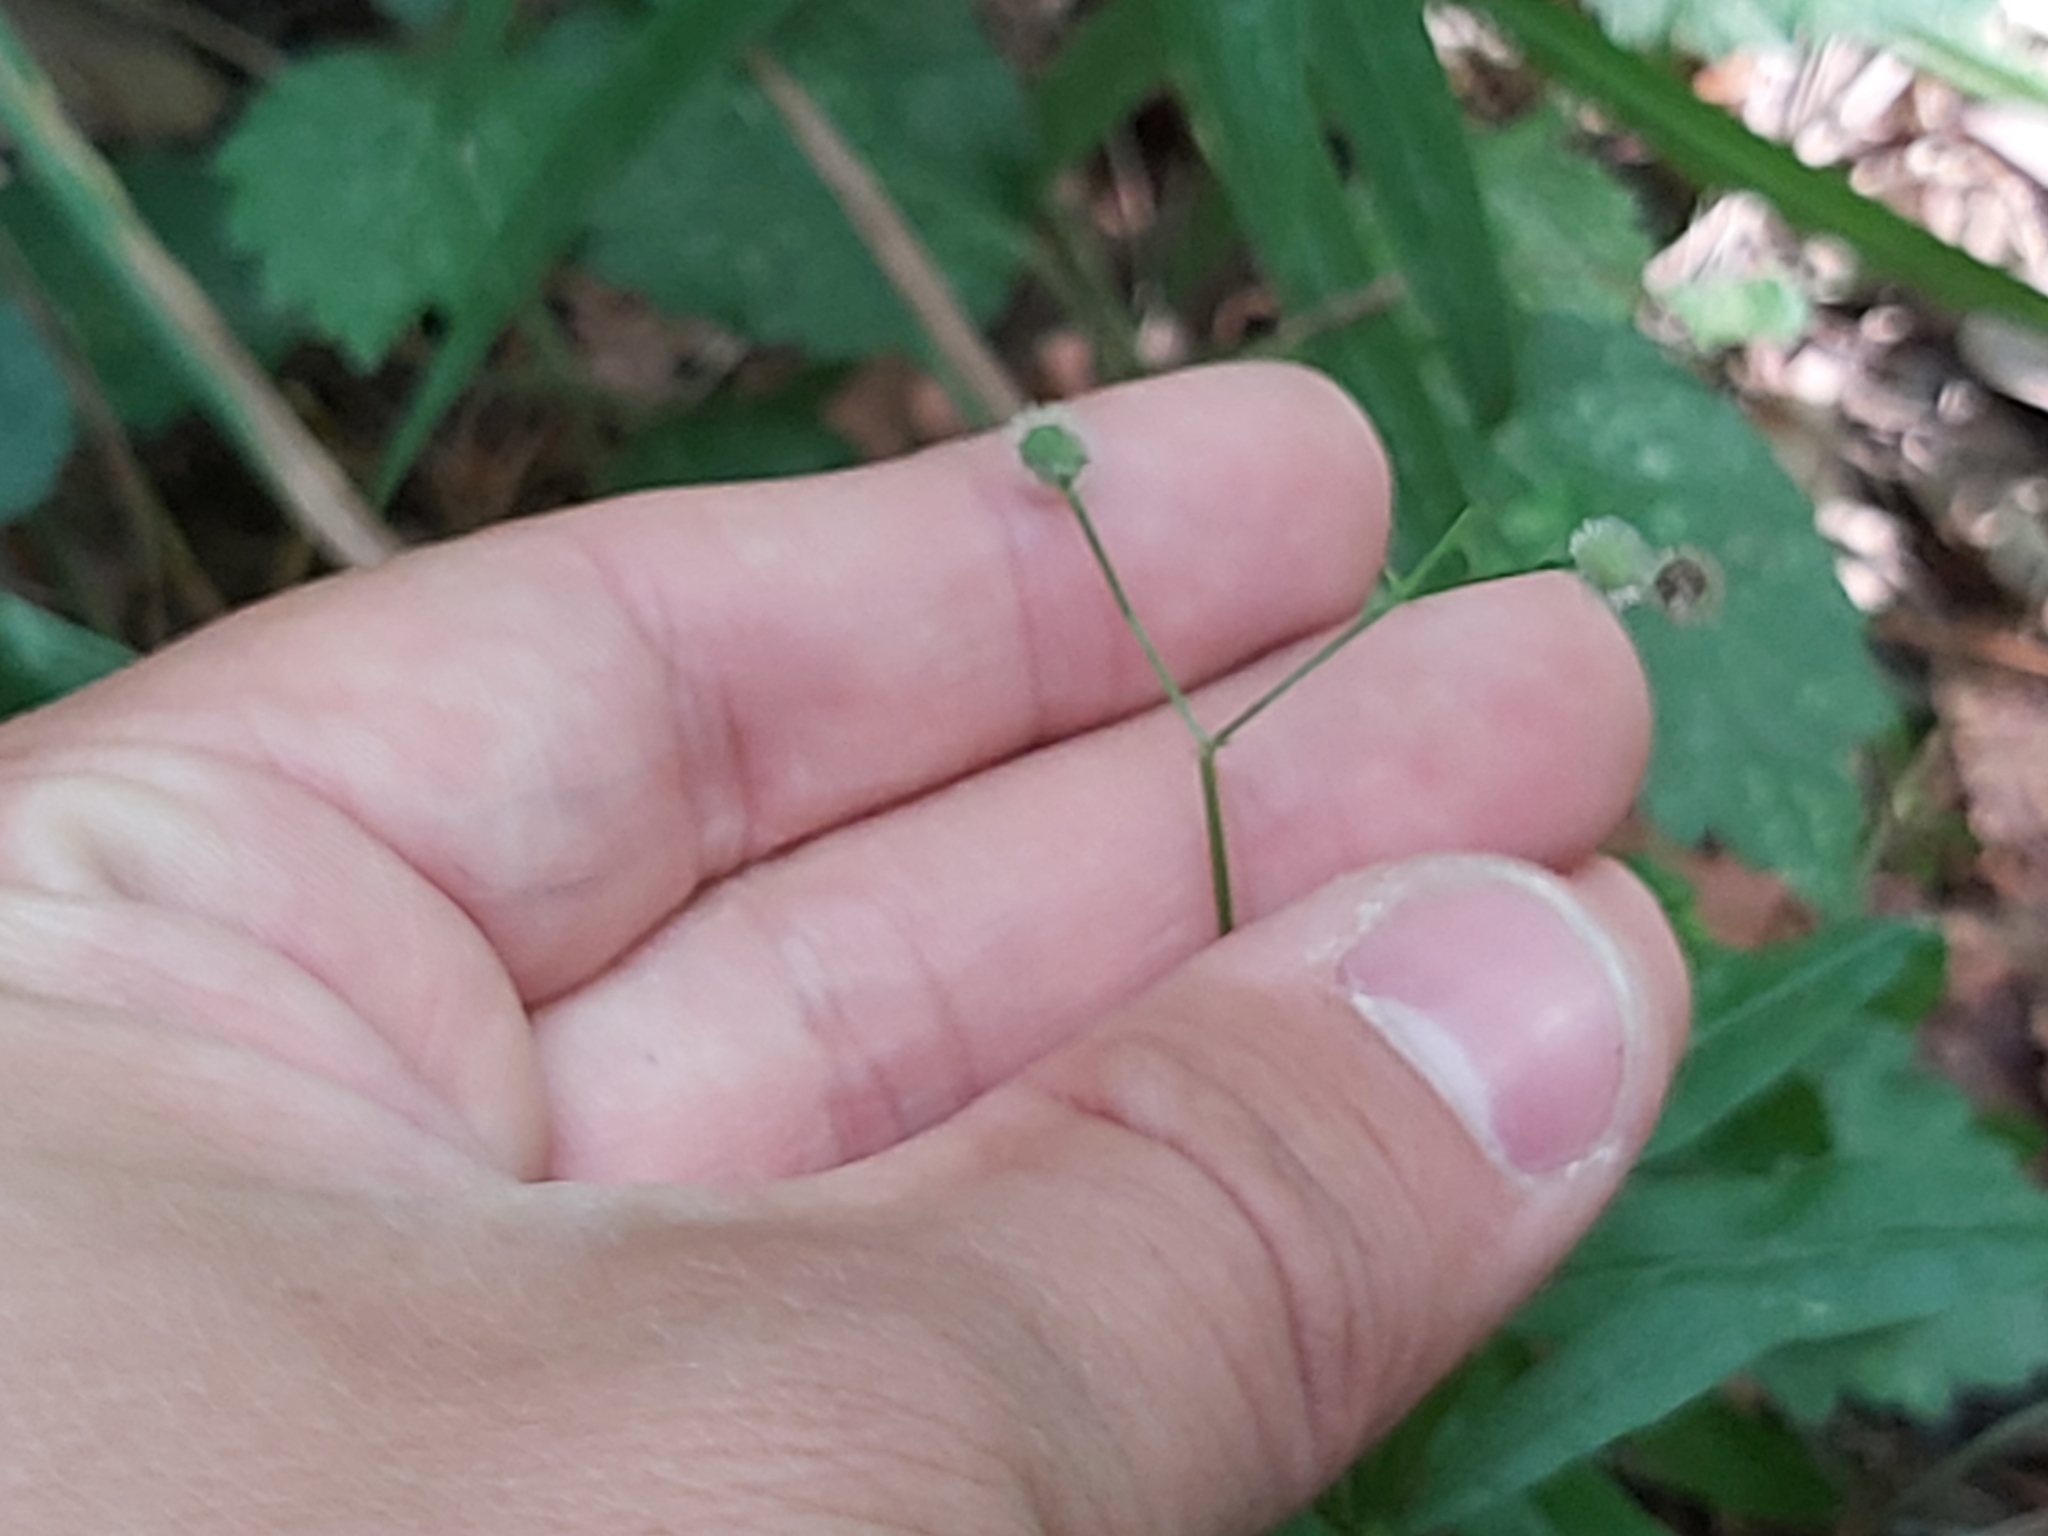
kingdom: Plantae
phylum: Tracheophyta
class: Magnoliopsida
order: Gentianales
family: Rubiaceae
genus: Galium
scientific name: Galium odoratum
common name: Sweet woodruff
